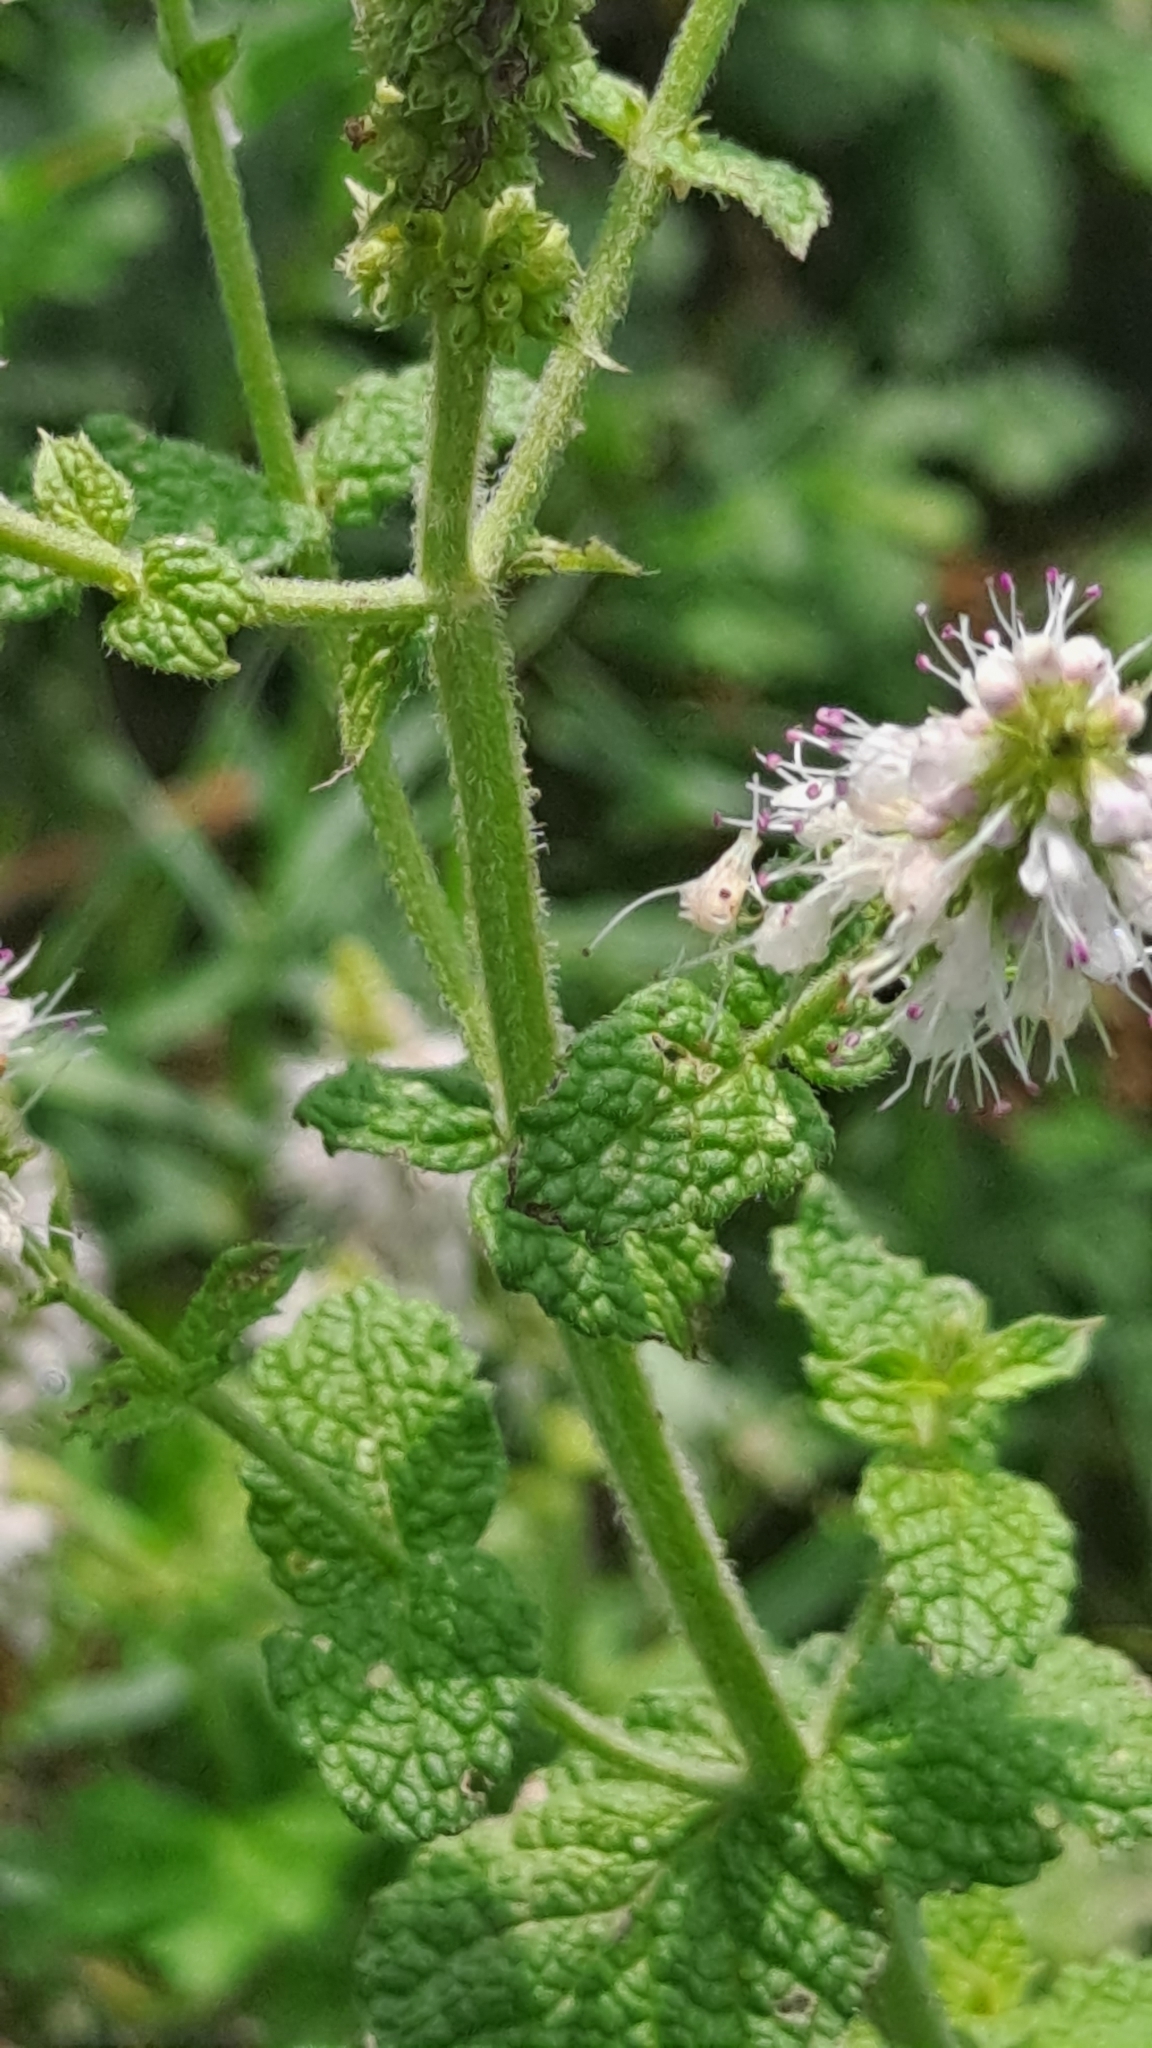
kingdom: Plantae
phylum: Tracheophyta
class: Magnoliopsida
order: Lamiales
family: Lamiaceae
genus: Mentha
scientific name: Mentha suaveolens
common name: Apple mint
